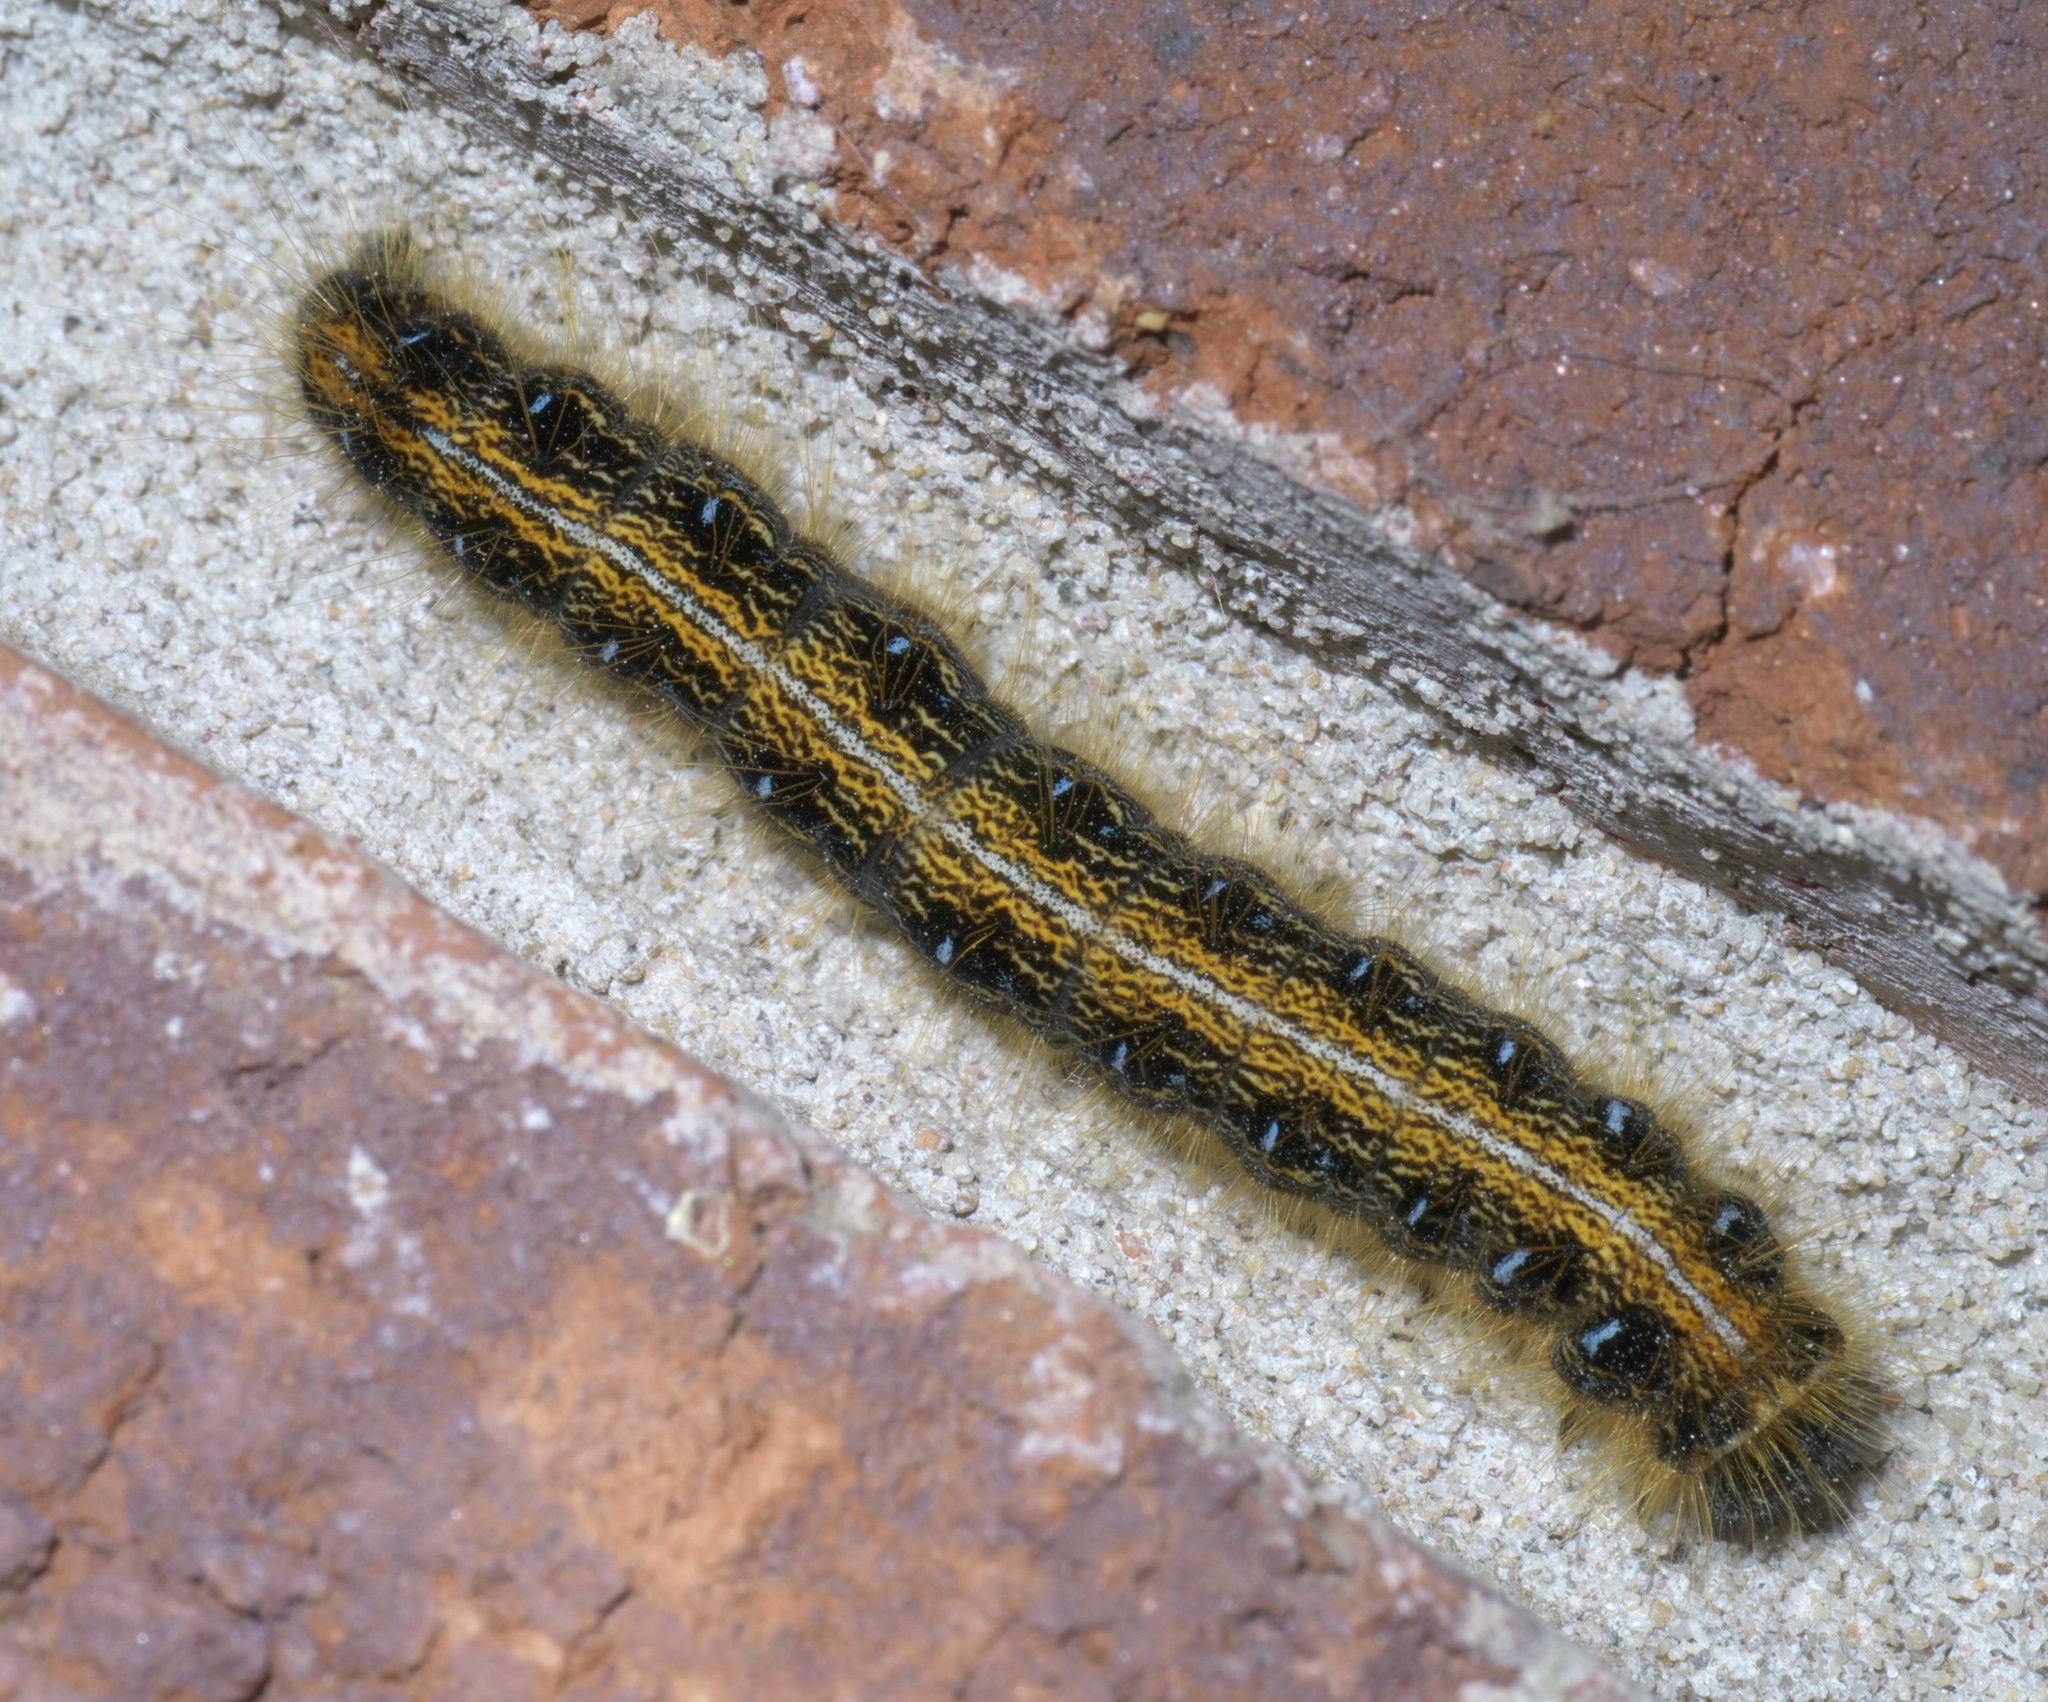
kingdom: Animalia
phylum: Arthropoda
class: Insecta
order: Lepidoptera
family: Lasiocampidae
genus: Malacosoma
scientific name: Malacosoma americana
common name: Eastern tent caterpillar moth
